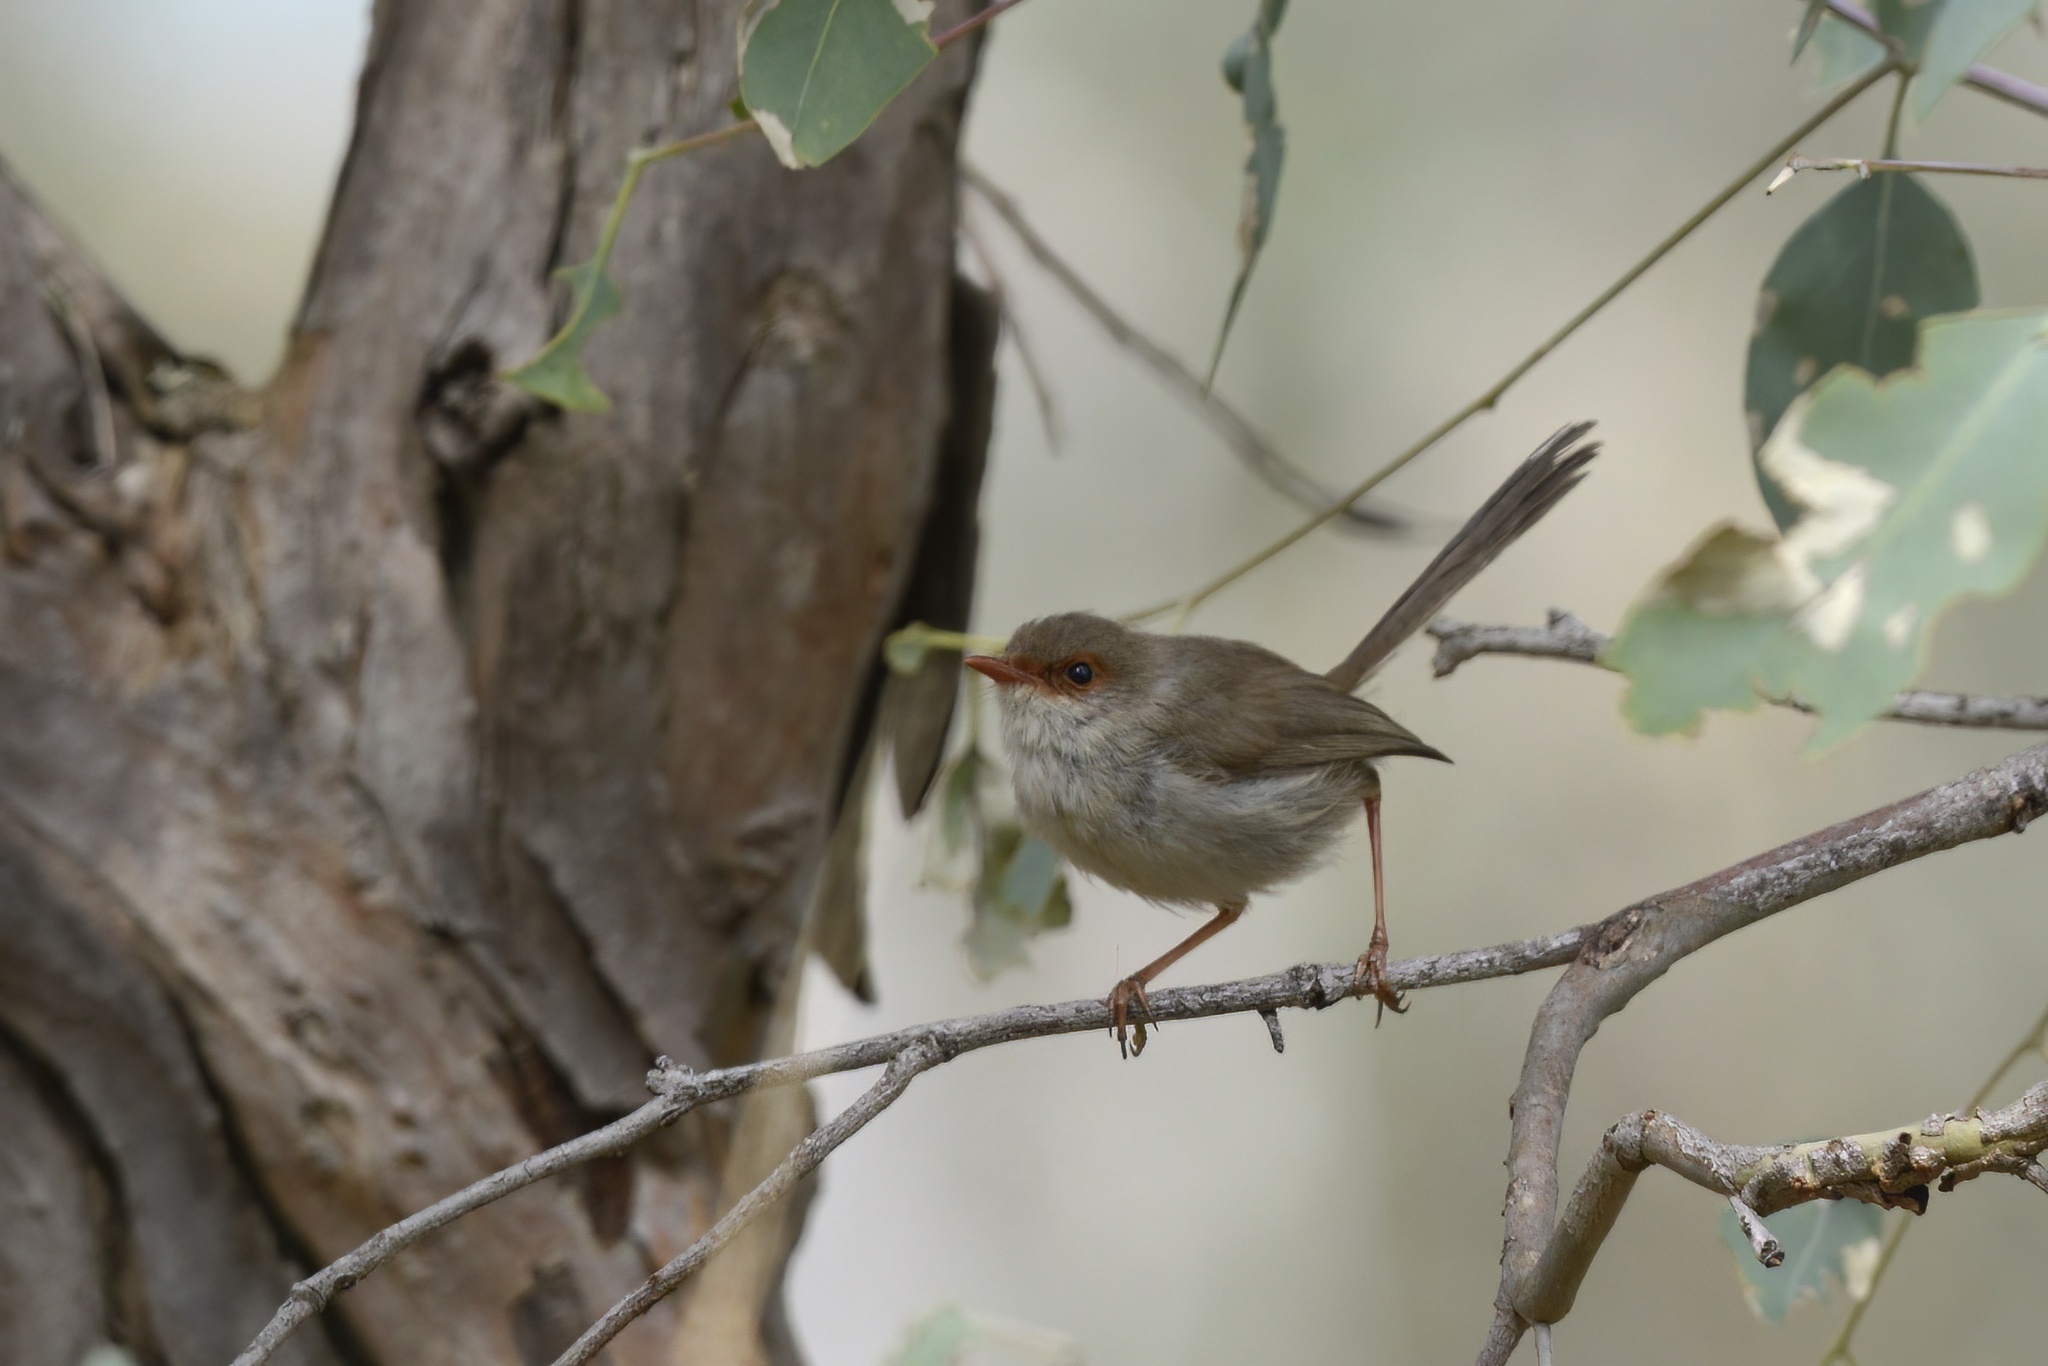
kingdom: Animalia
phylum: Chordata
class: Aves
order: Passeriformes
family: Maluridae
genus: Malurus
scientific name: Malurus cyaneus
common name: Superb fairywren
